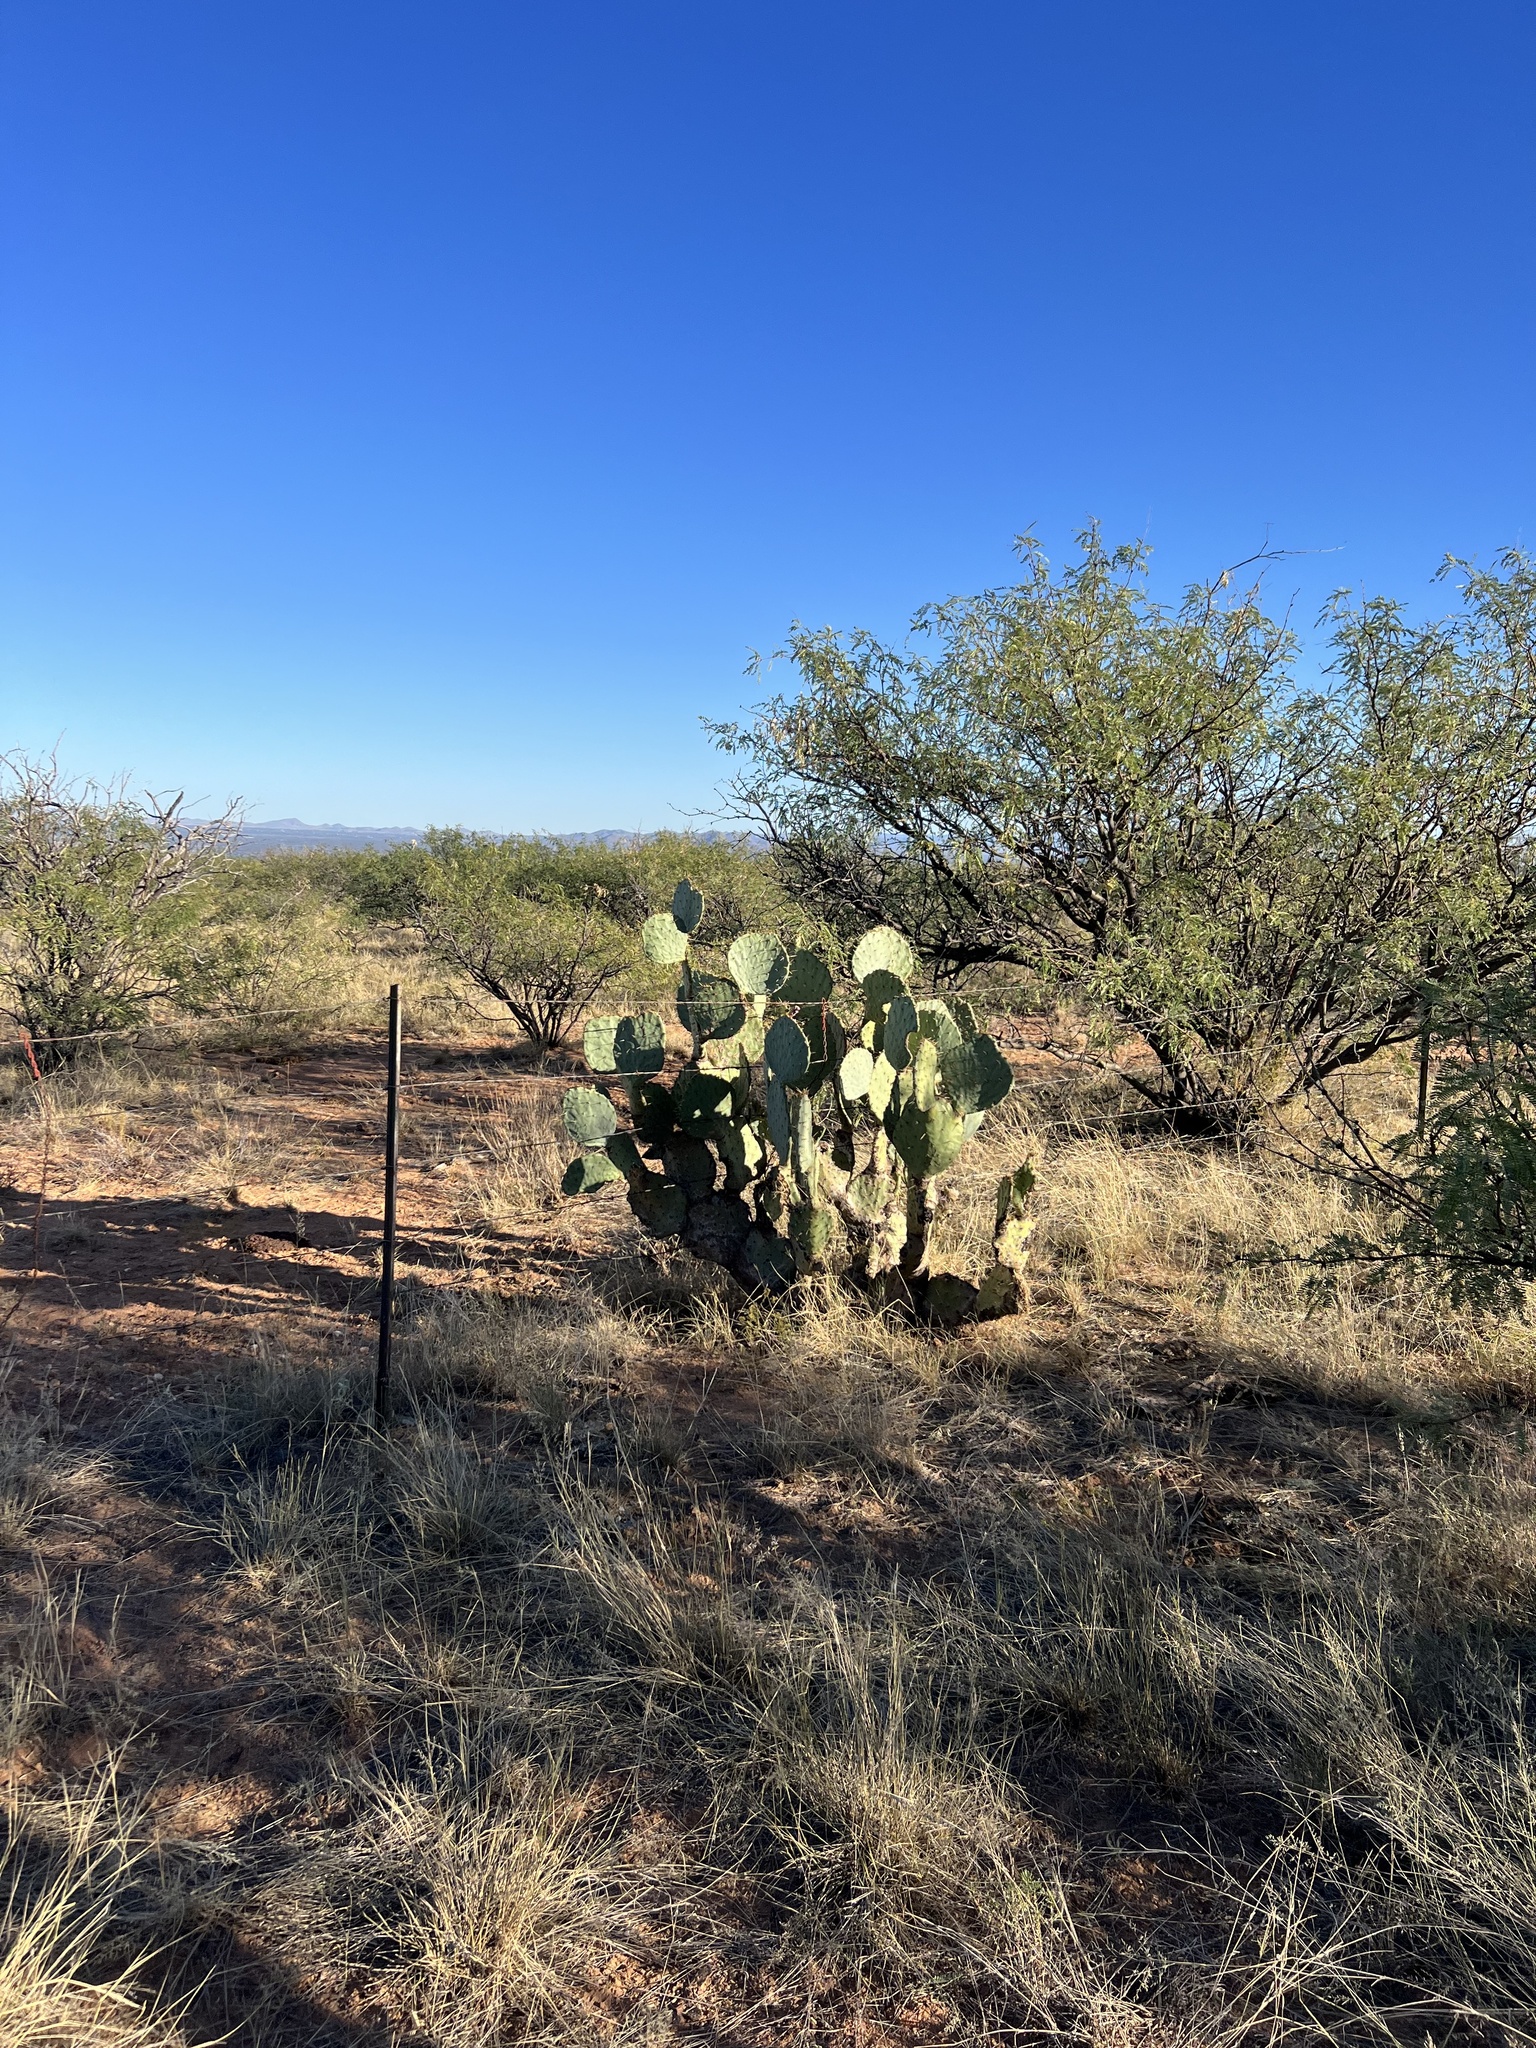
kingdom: Plantae
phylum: Tracheophyta
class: Magnoliopsida
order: Caryophyllales
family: Cactaceae
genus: Opuntia
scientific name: Opuntia engelmannii
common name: Cactus-apple
